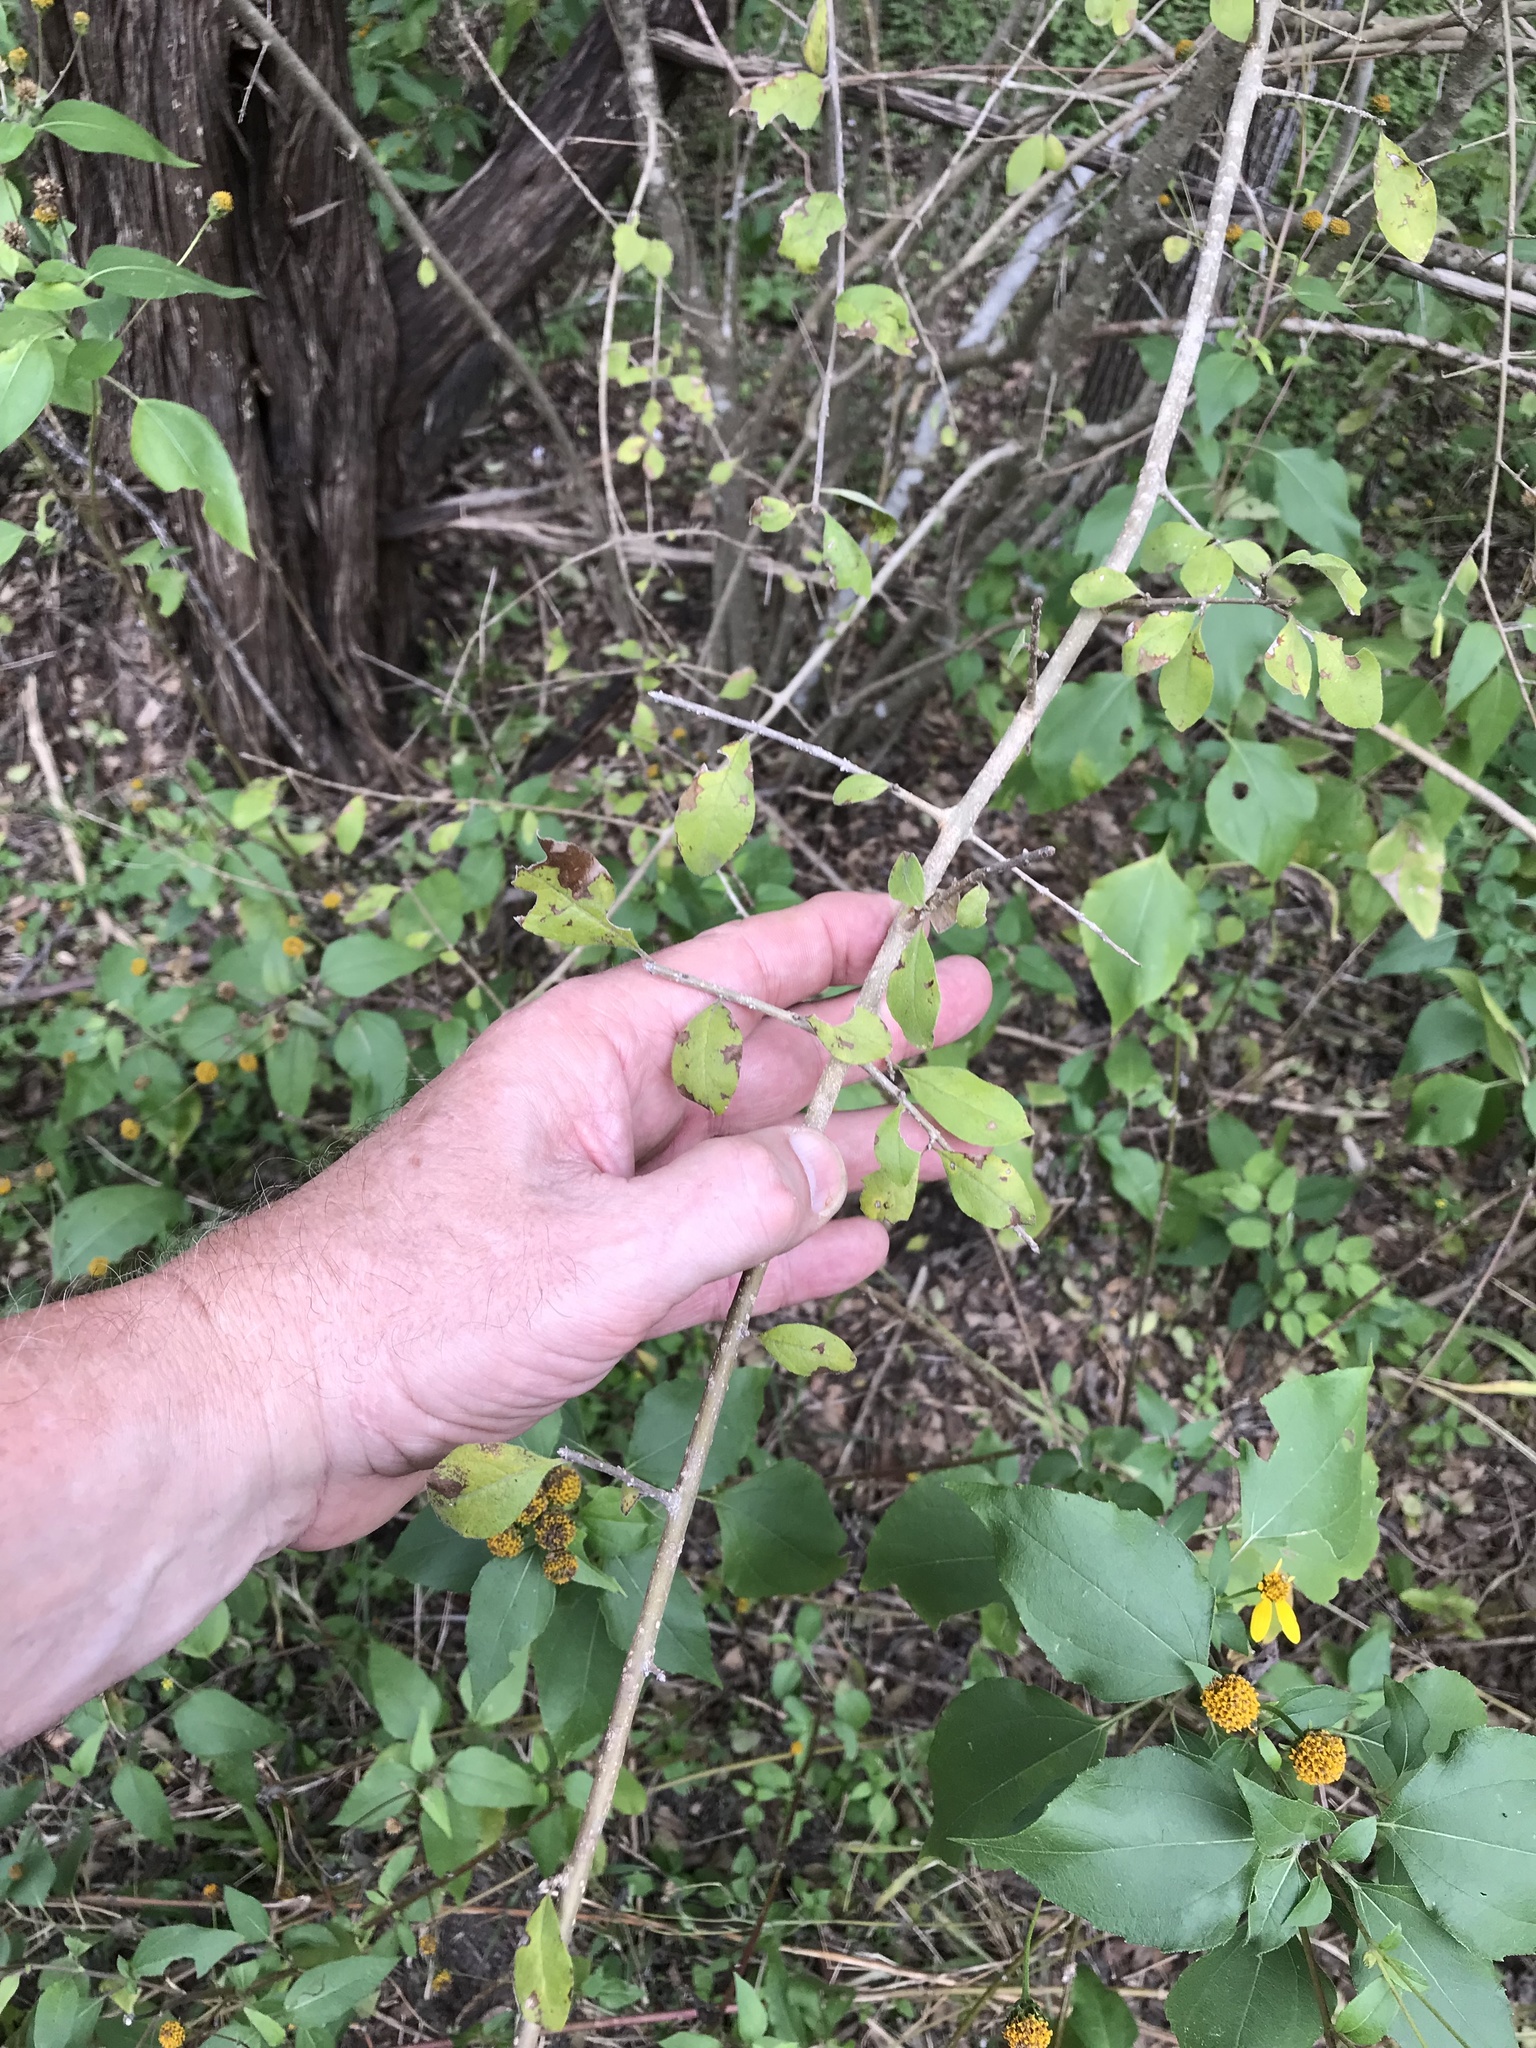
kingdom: Plantae
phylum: Tracheophyta
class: Magnoliopsida
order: Lamiales
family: Oleaceae
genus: Forestiera
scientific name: Forestiera pubescens
